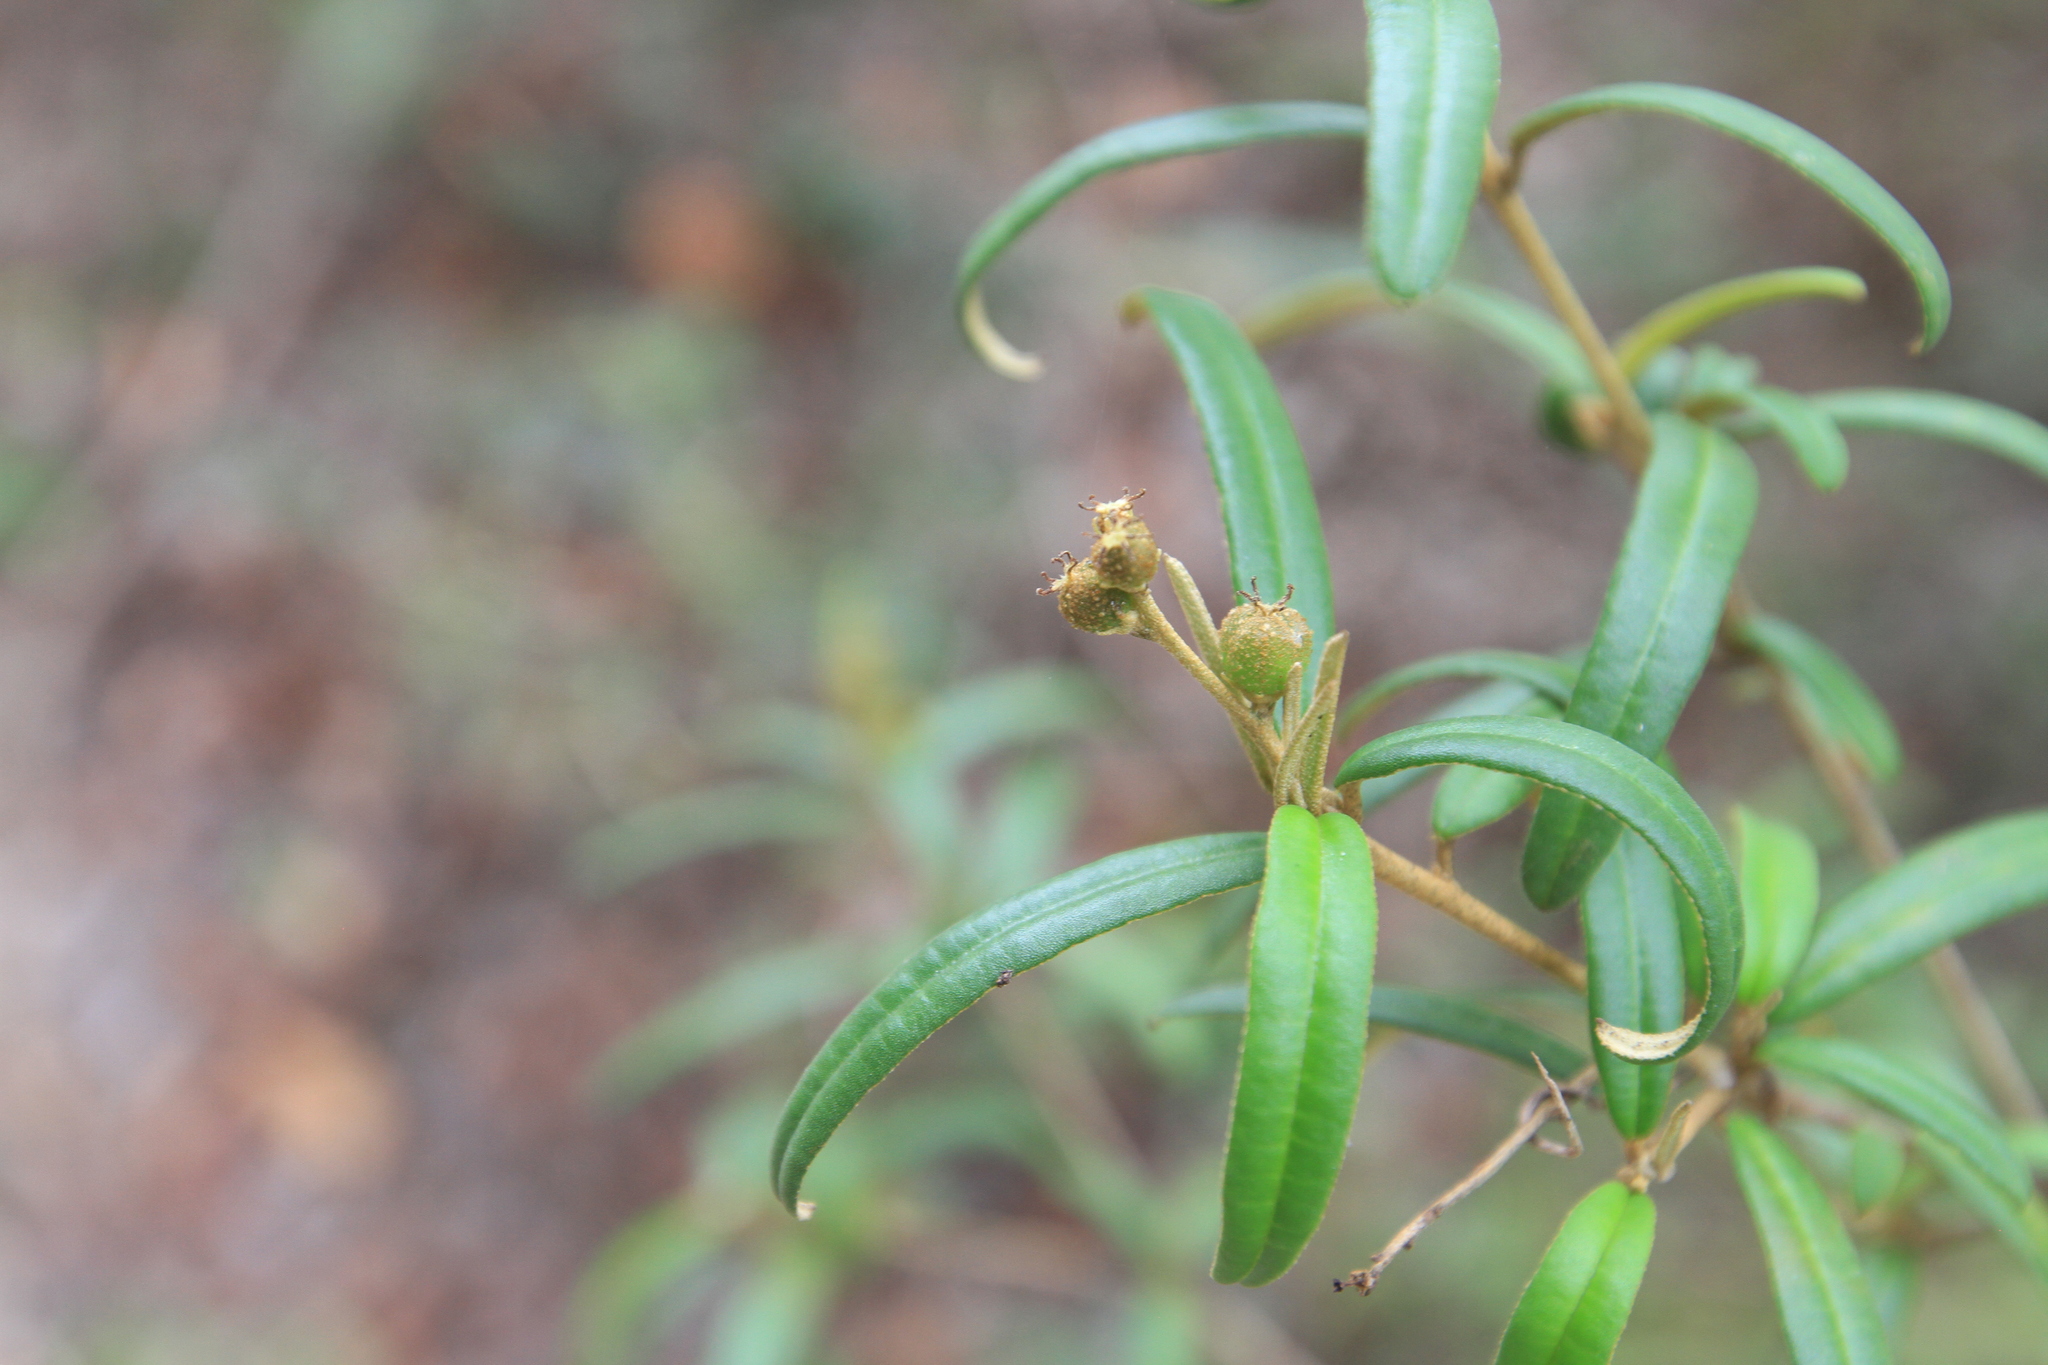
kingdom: Plantae
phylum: Tracheophyta
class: Magnoliopsida
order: Malpighiales
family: Euphorbiaceae
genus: Croton
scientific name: Croton linearis
